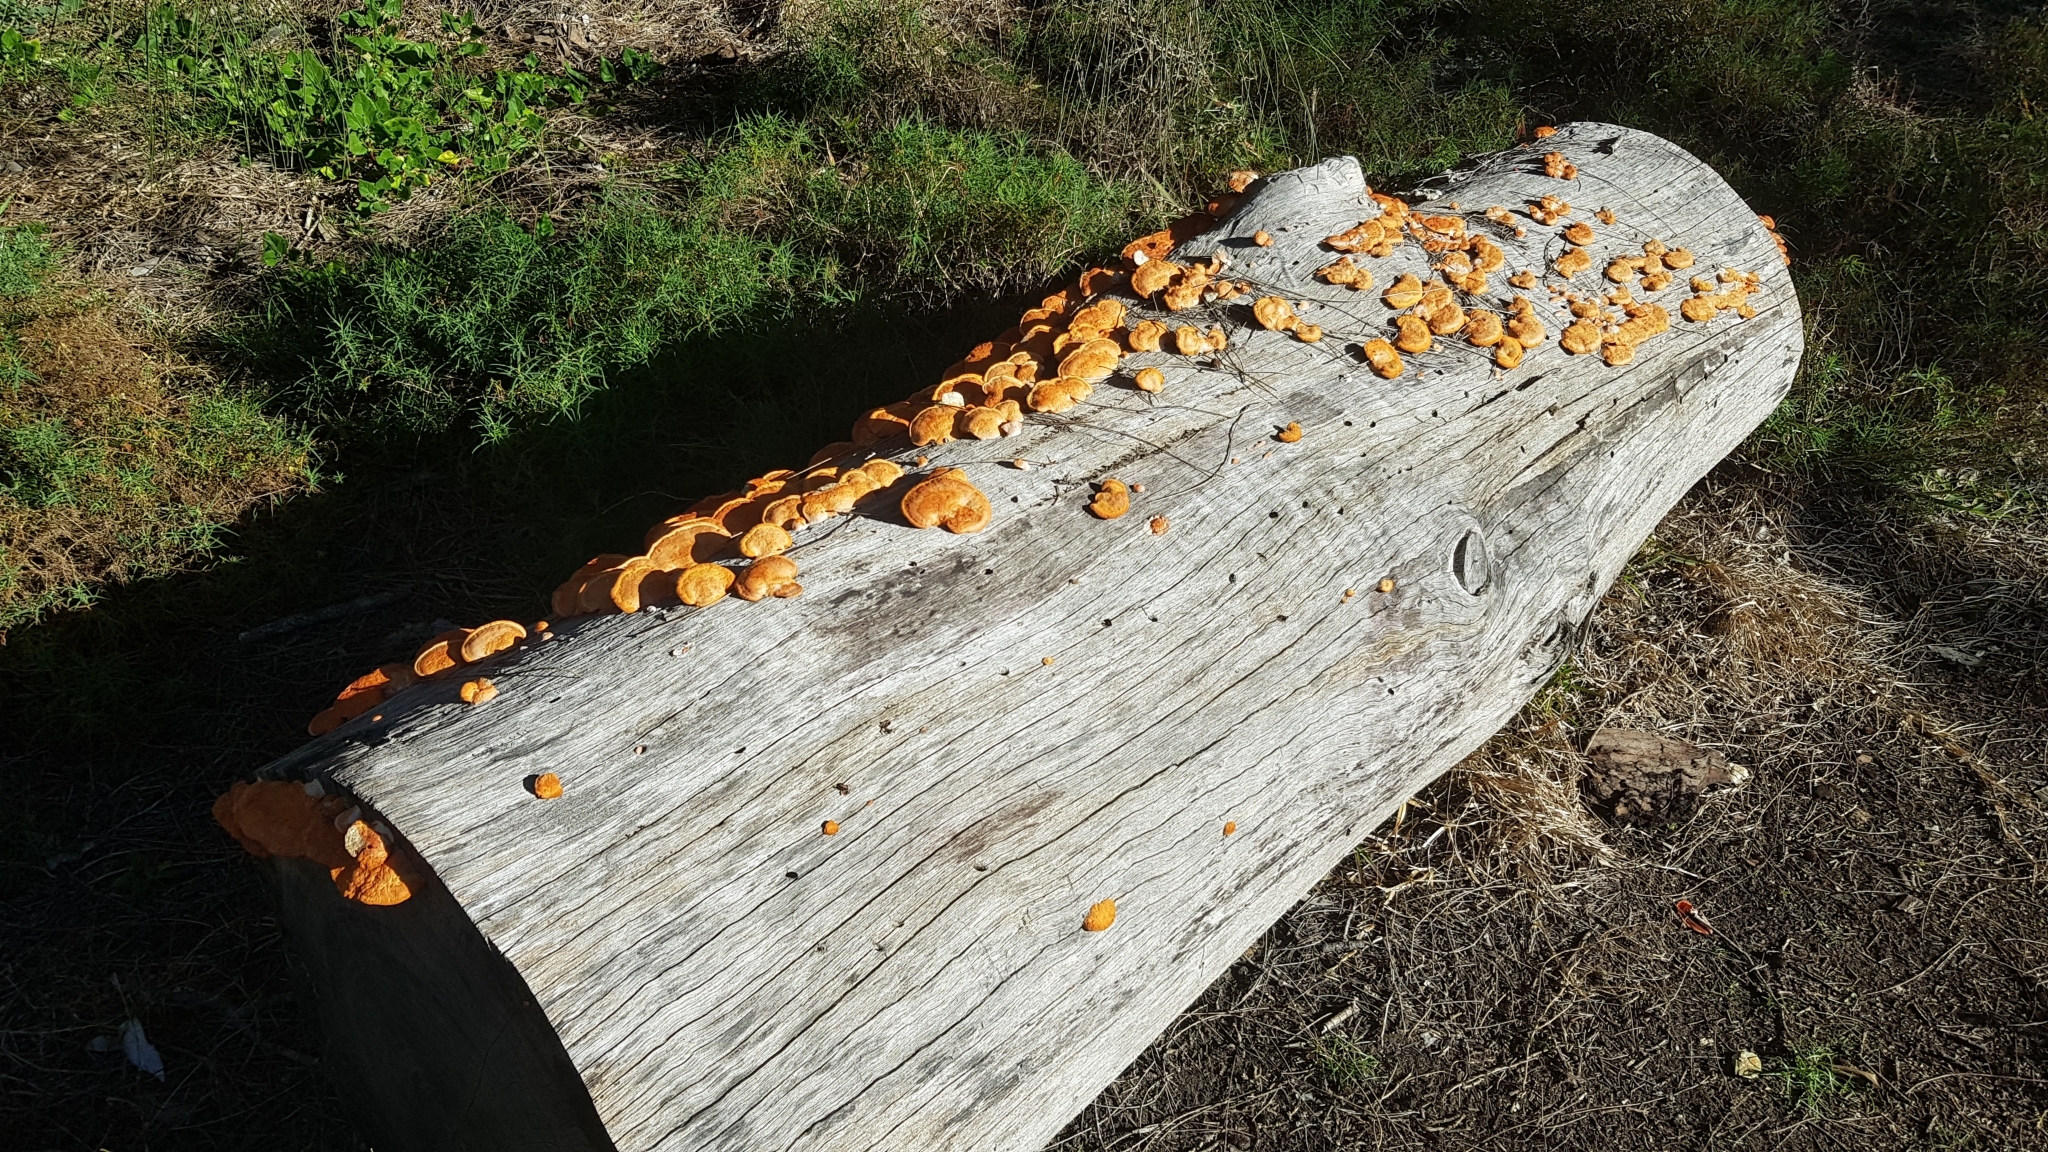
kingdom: Fungi
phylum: Basidiomycota
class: Agaricomycetes
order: Polyporales
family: Polyporaceae
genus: Trametes
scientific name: Trametes coccinea
